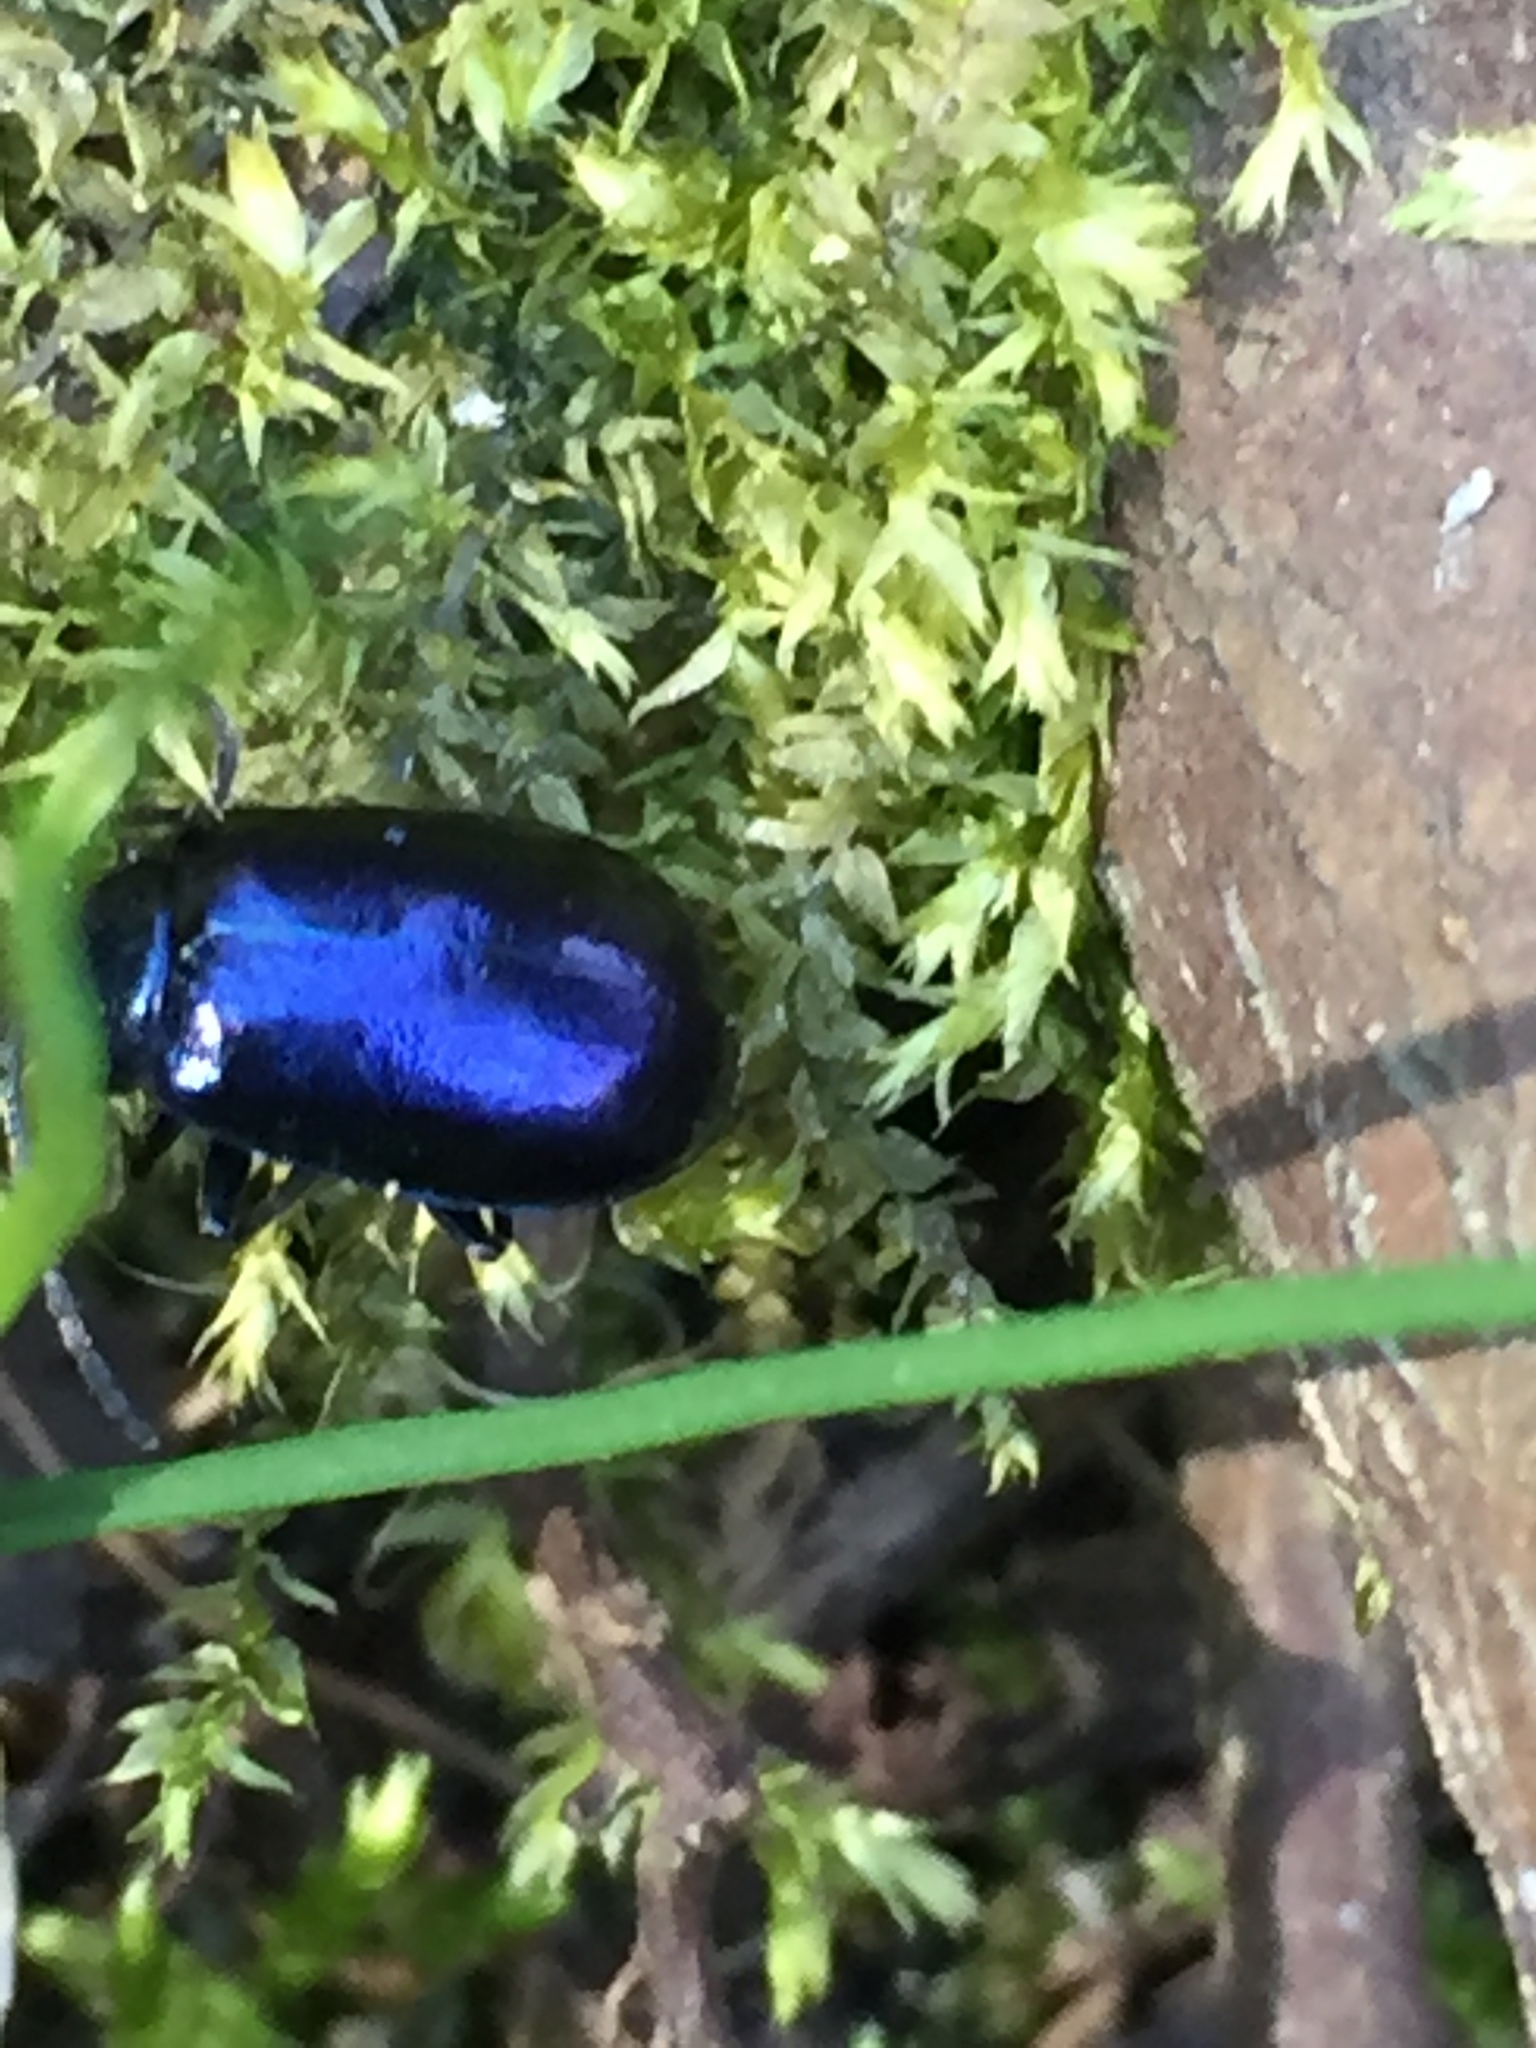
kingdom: Animalia
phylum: Arthropoda
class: Insecta
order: Coleoptera
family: Chrysomelidae
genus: Agelastica
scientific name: Agelastica alni
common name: Alder leaf beetle
